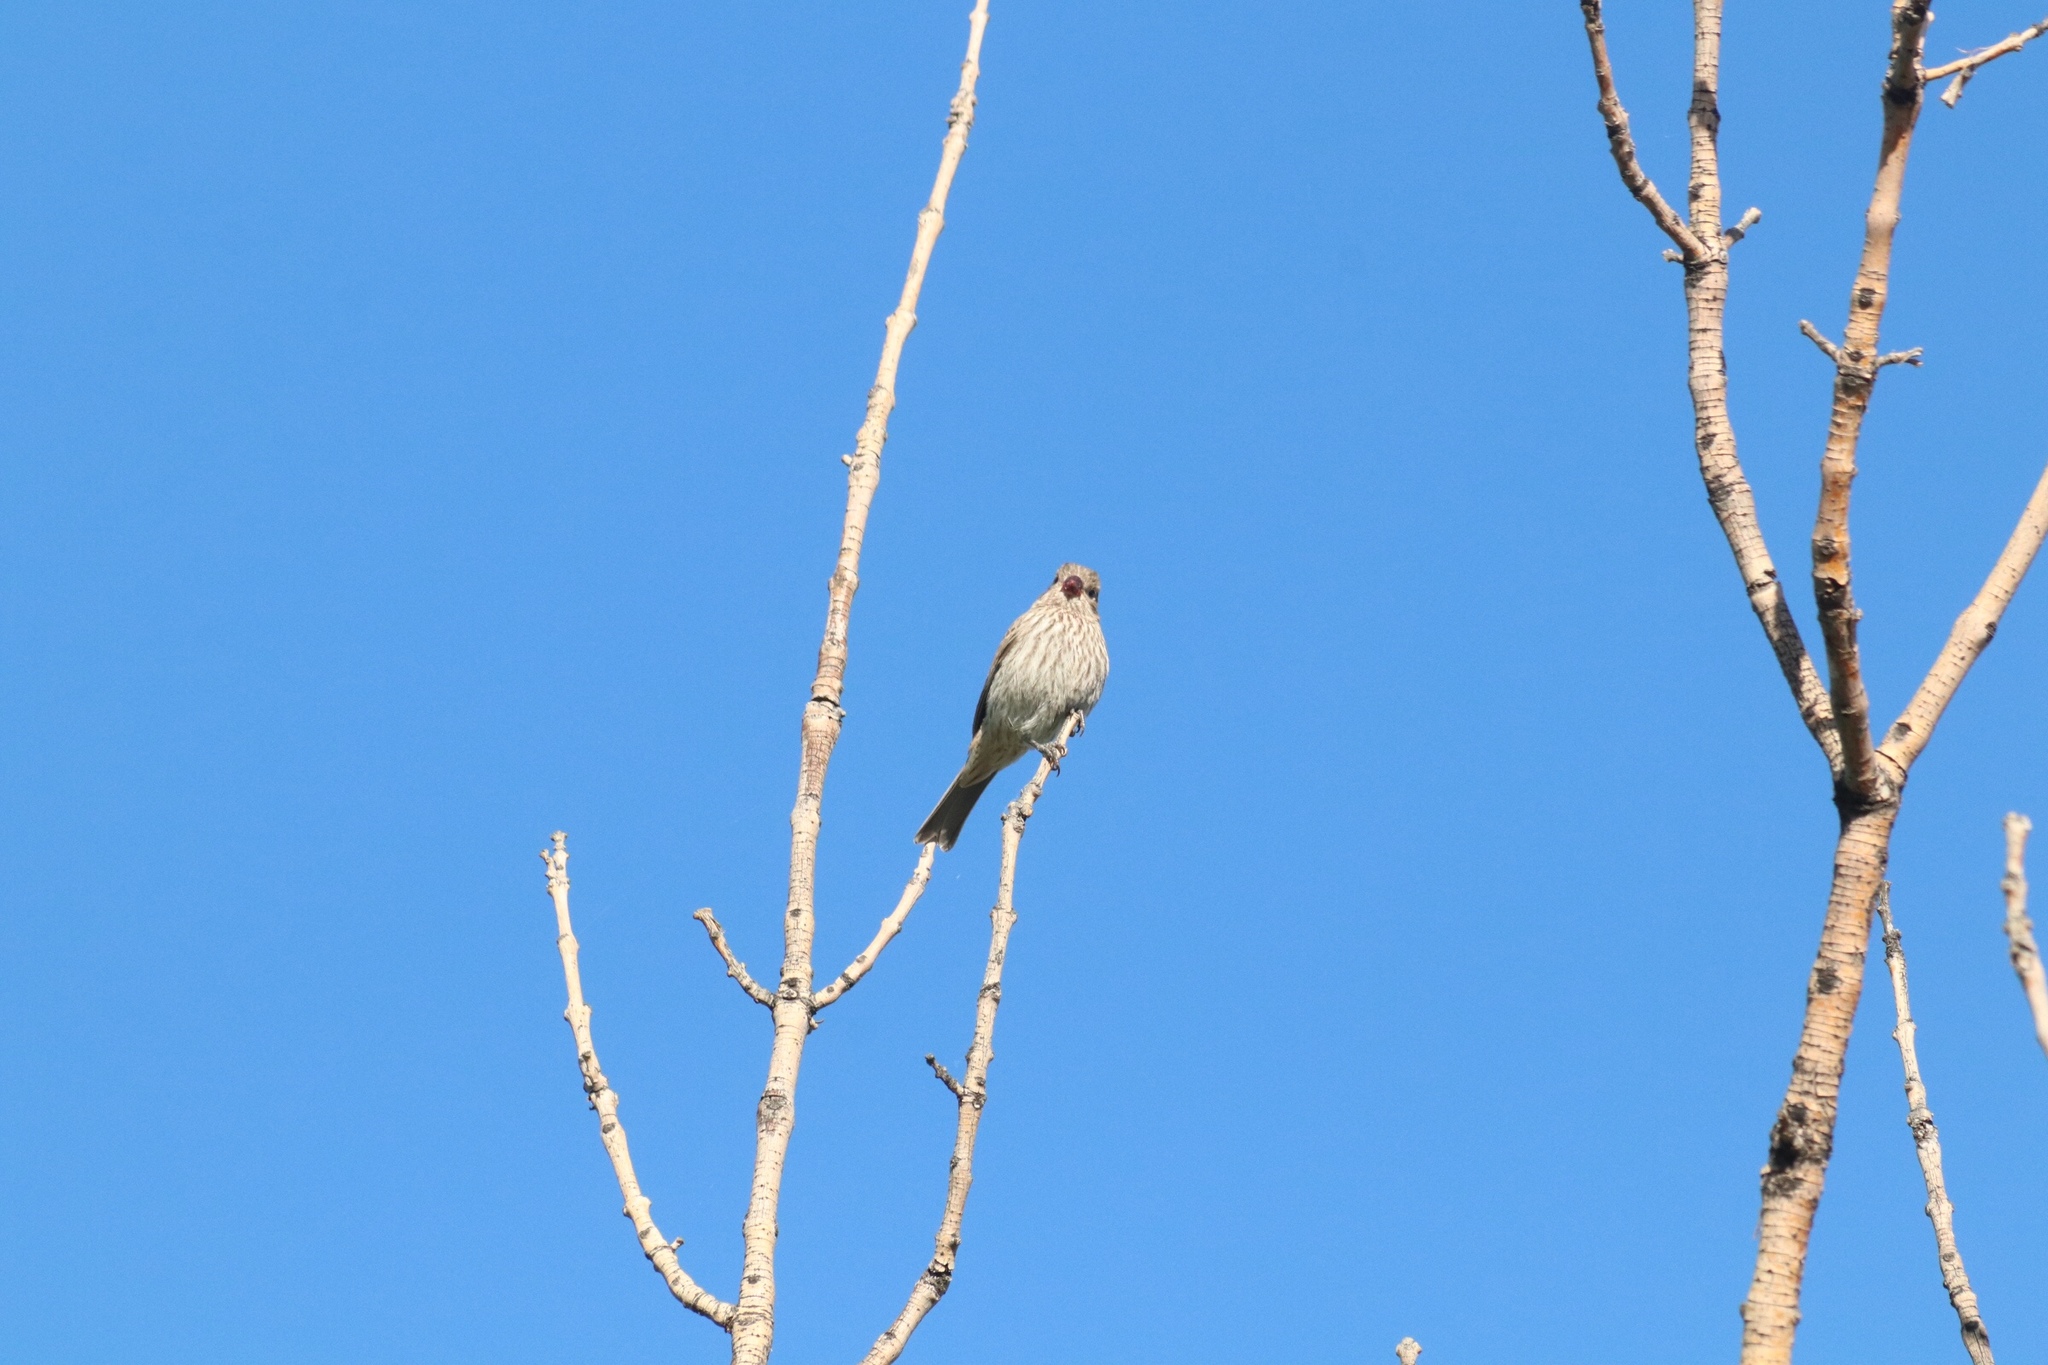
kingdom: Animalia
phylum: Chordata
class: Aves
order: Passeriformes
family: Fringillidae
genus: Haemorhous
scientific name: Haemorhous mexicanus
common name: House finch
